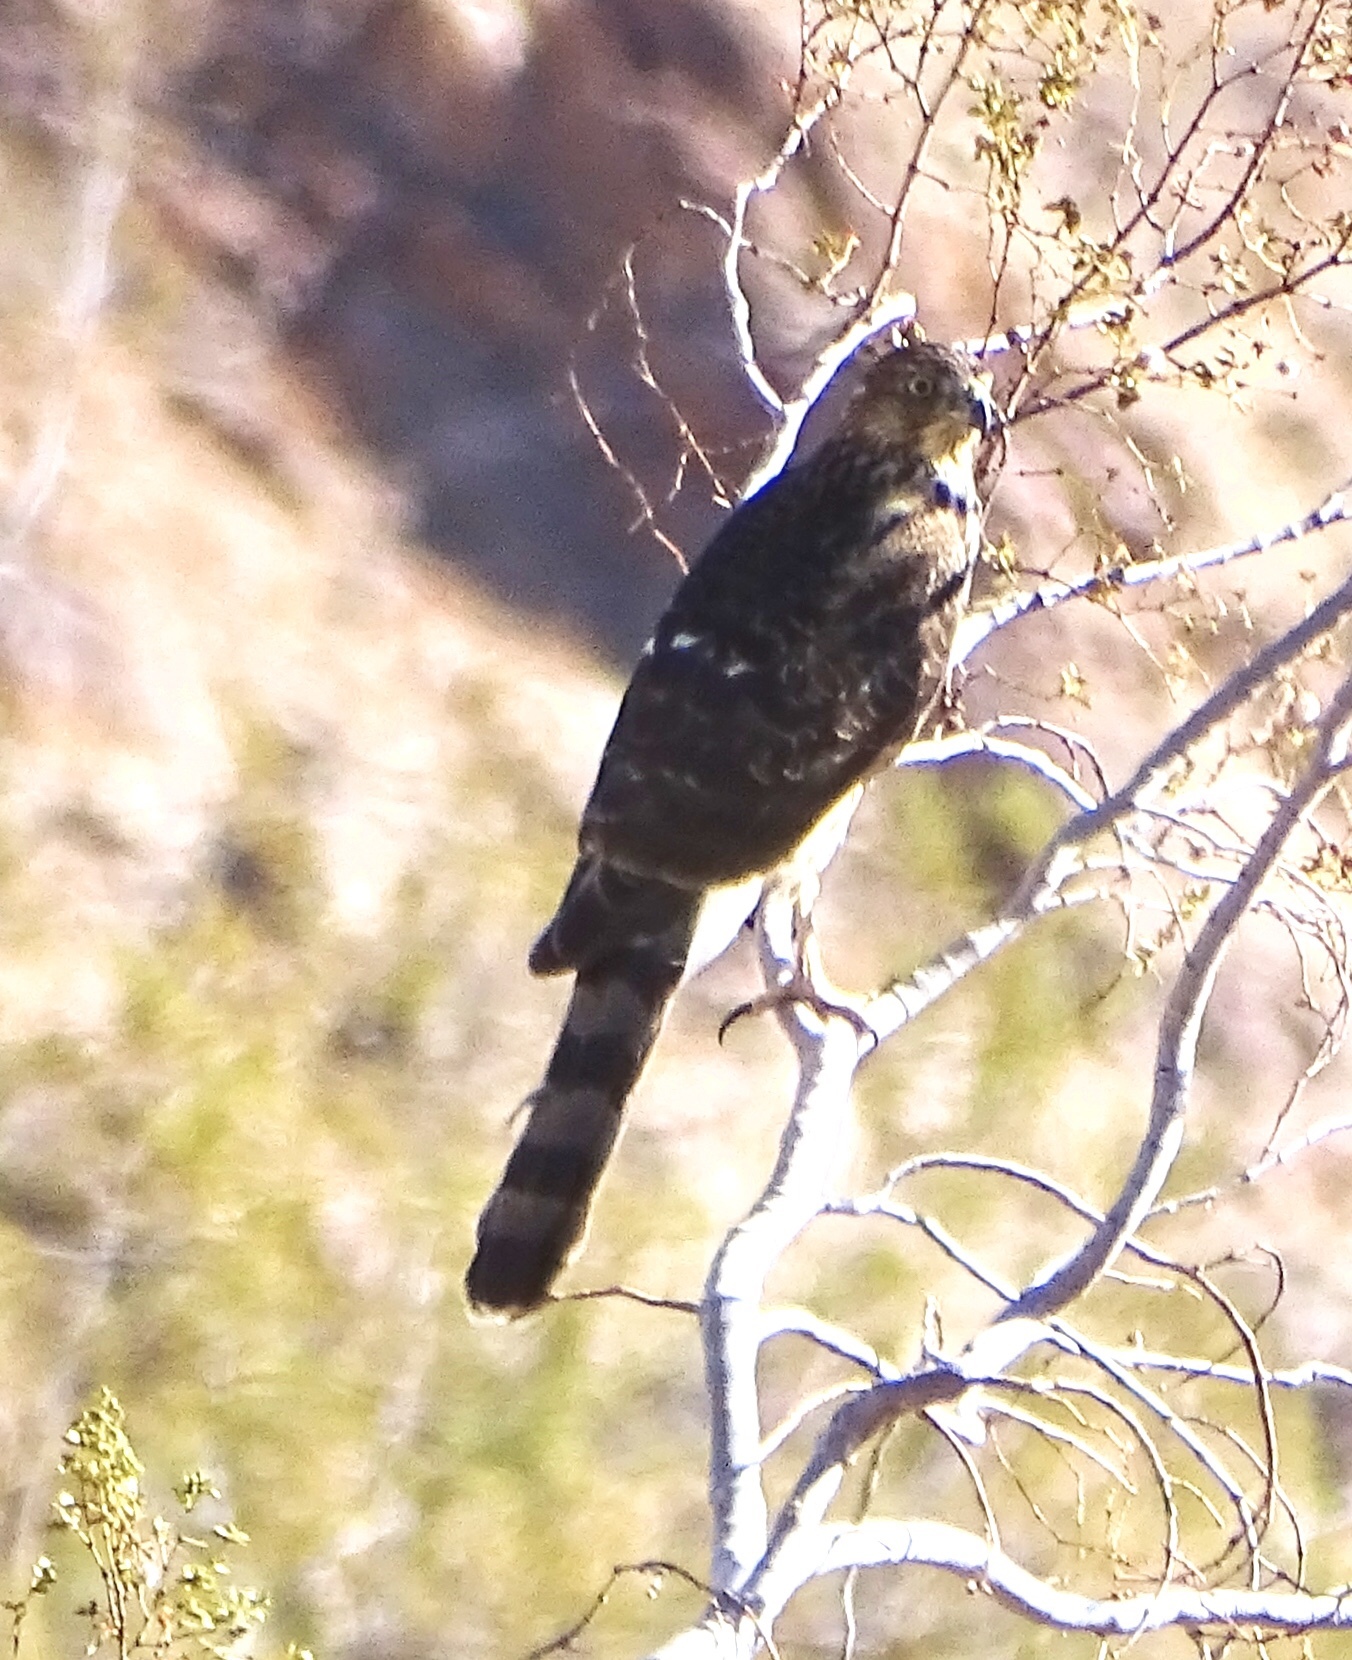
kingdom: Animalia
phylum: Chordata
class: Aves
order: Accipitriformes
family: Accipitridae
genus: Accipiter
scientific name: Accipiter cooperii
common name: Cooper's hawk
